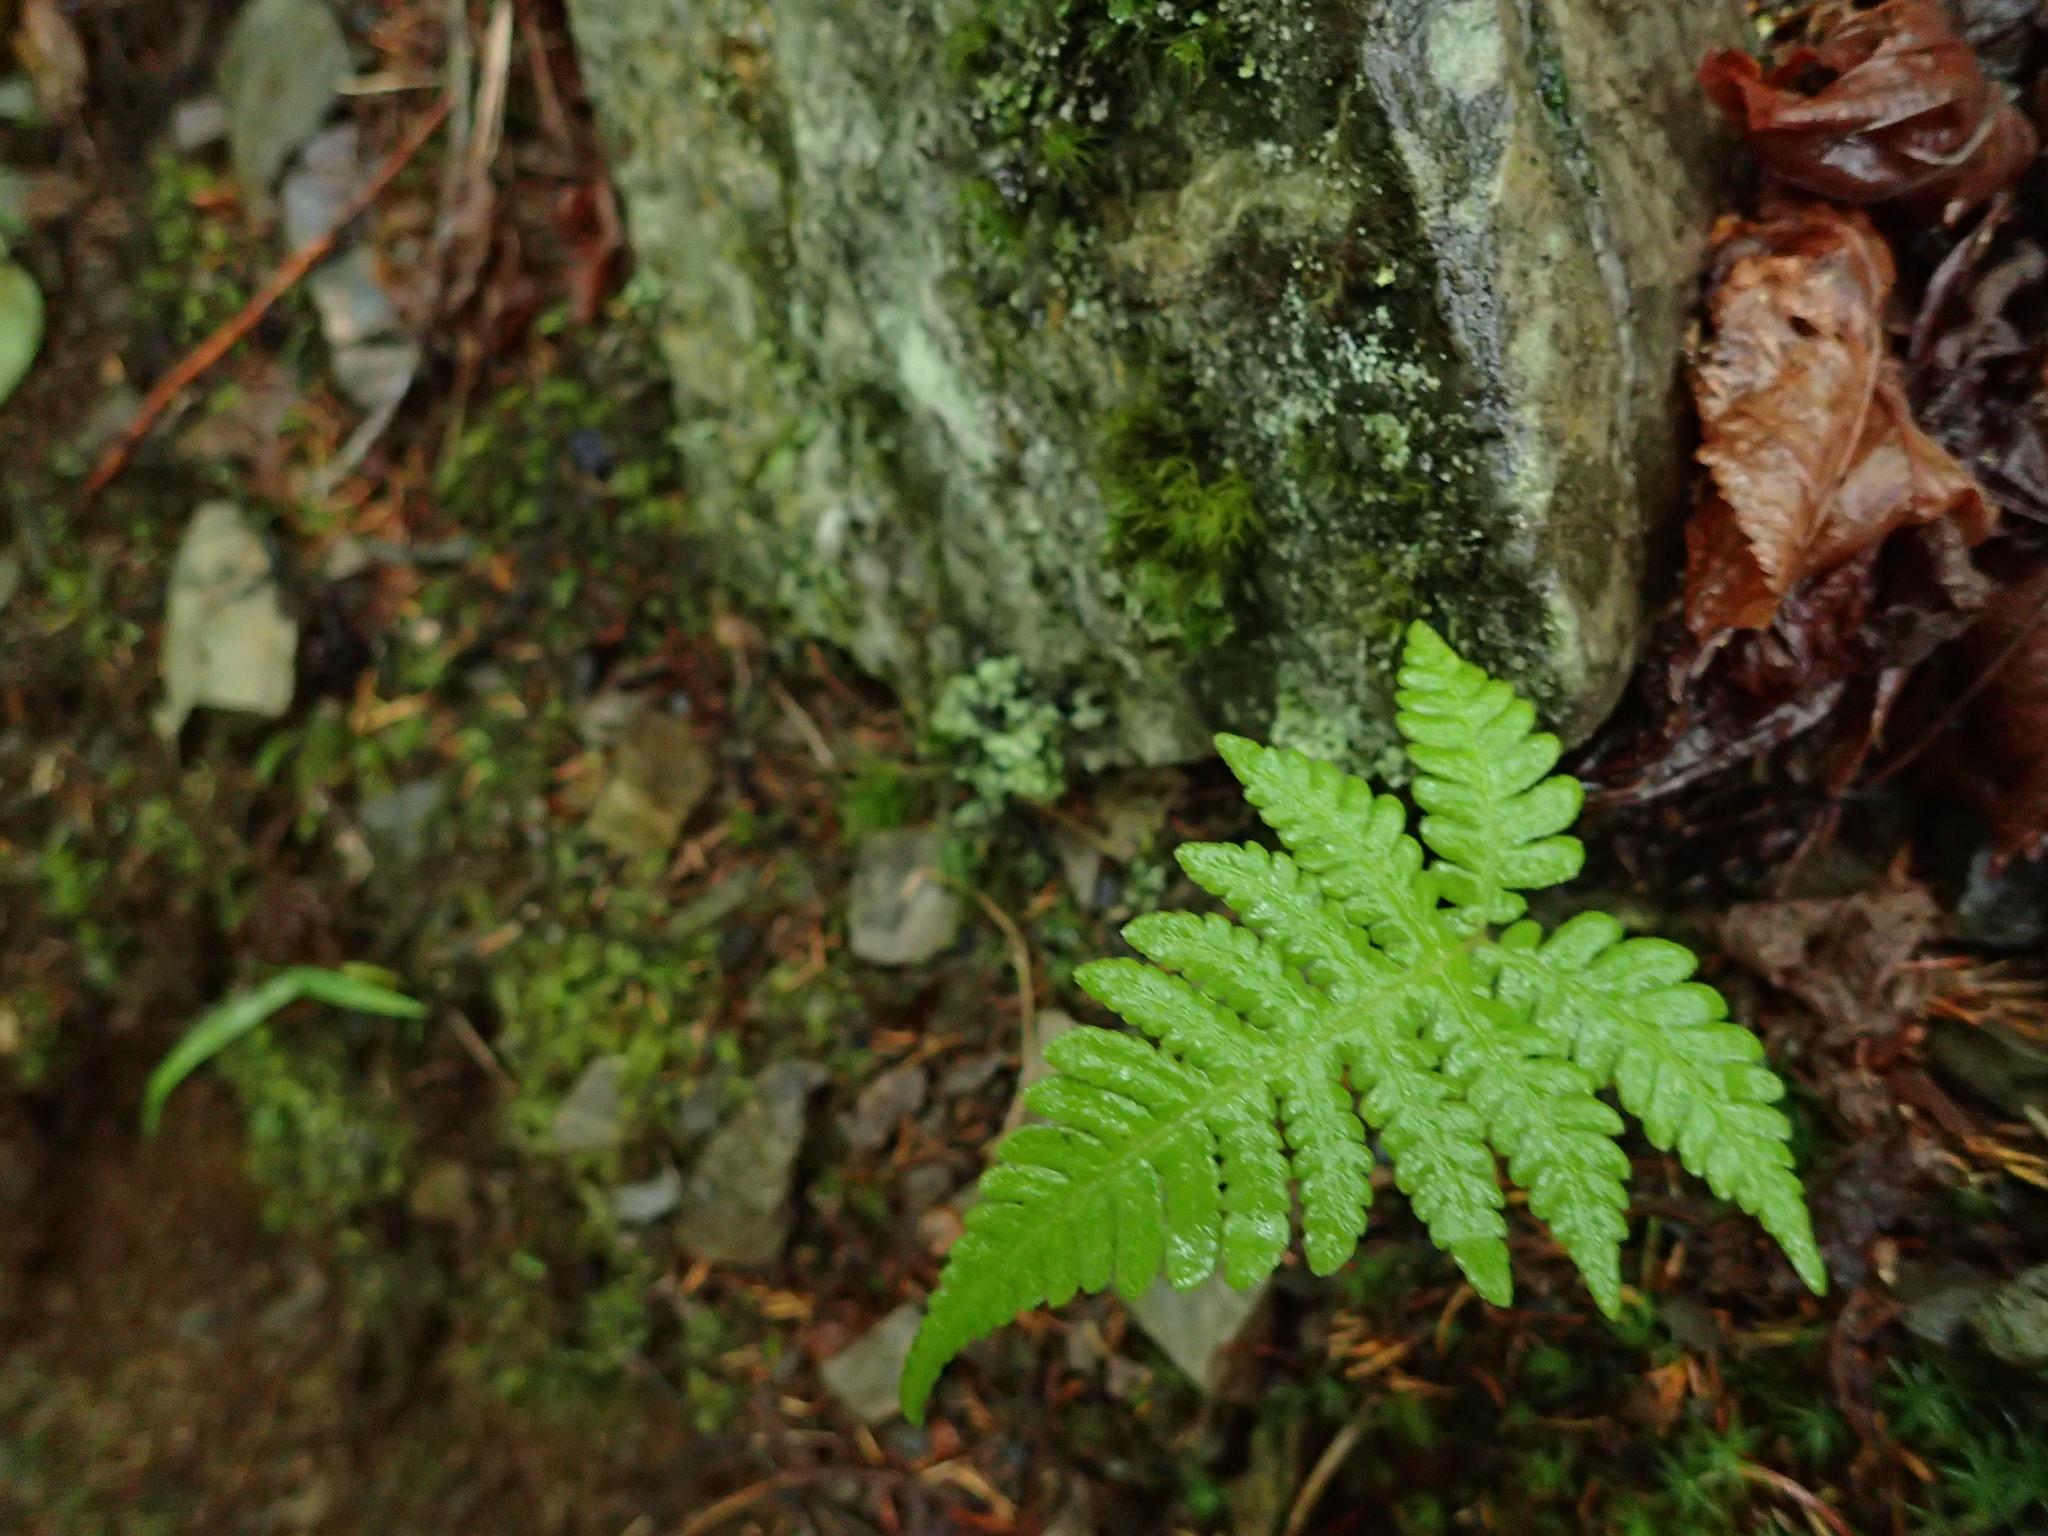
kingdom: Plantae
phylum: Tracheophyta
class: Polypodiopsida
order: Polypodiales
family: Thelypteridaceae
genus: Phegopteris
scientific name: Phegopteris connectilis
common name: Beech fern
